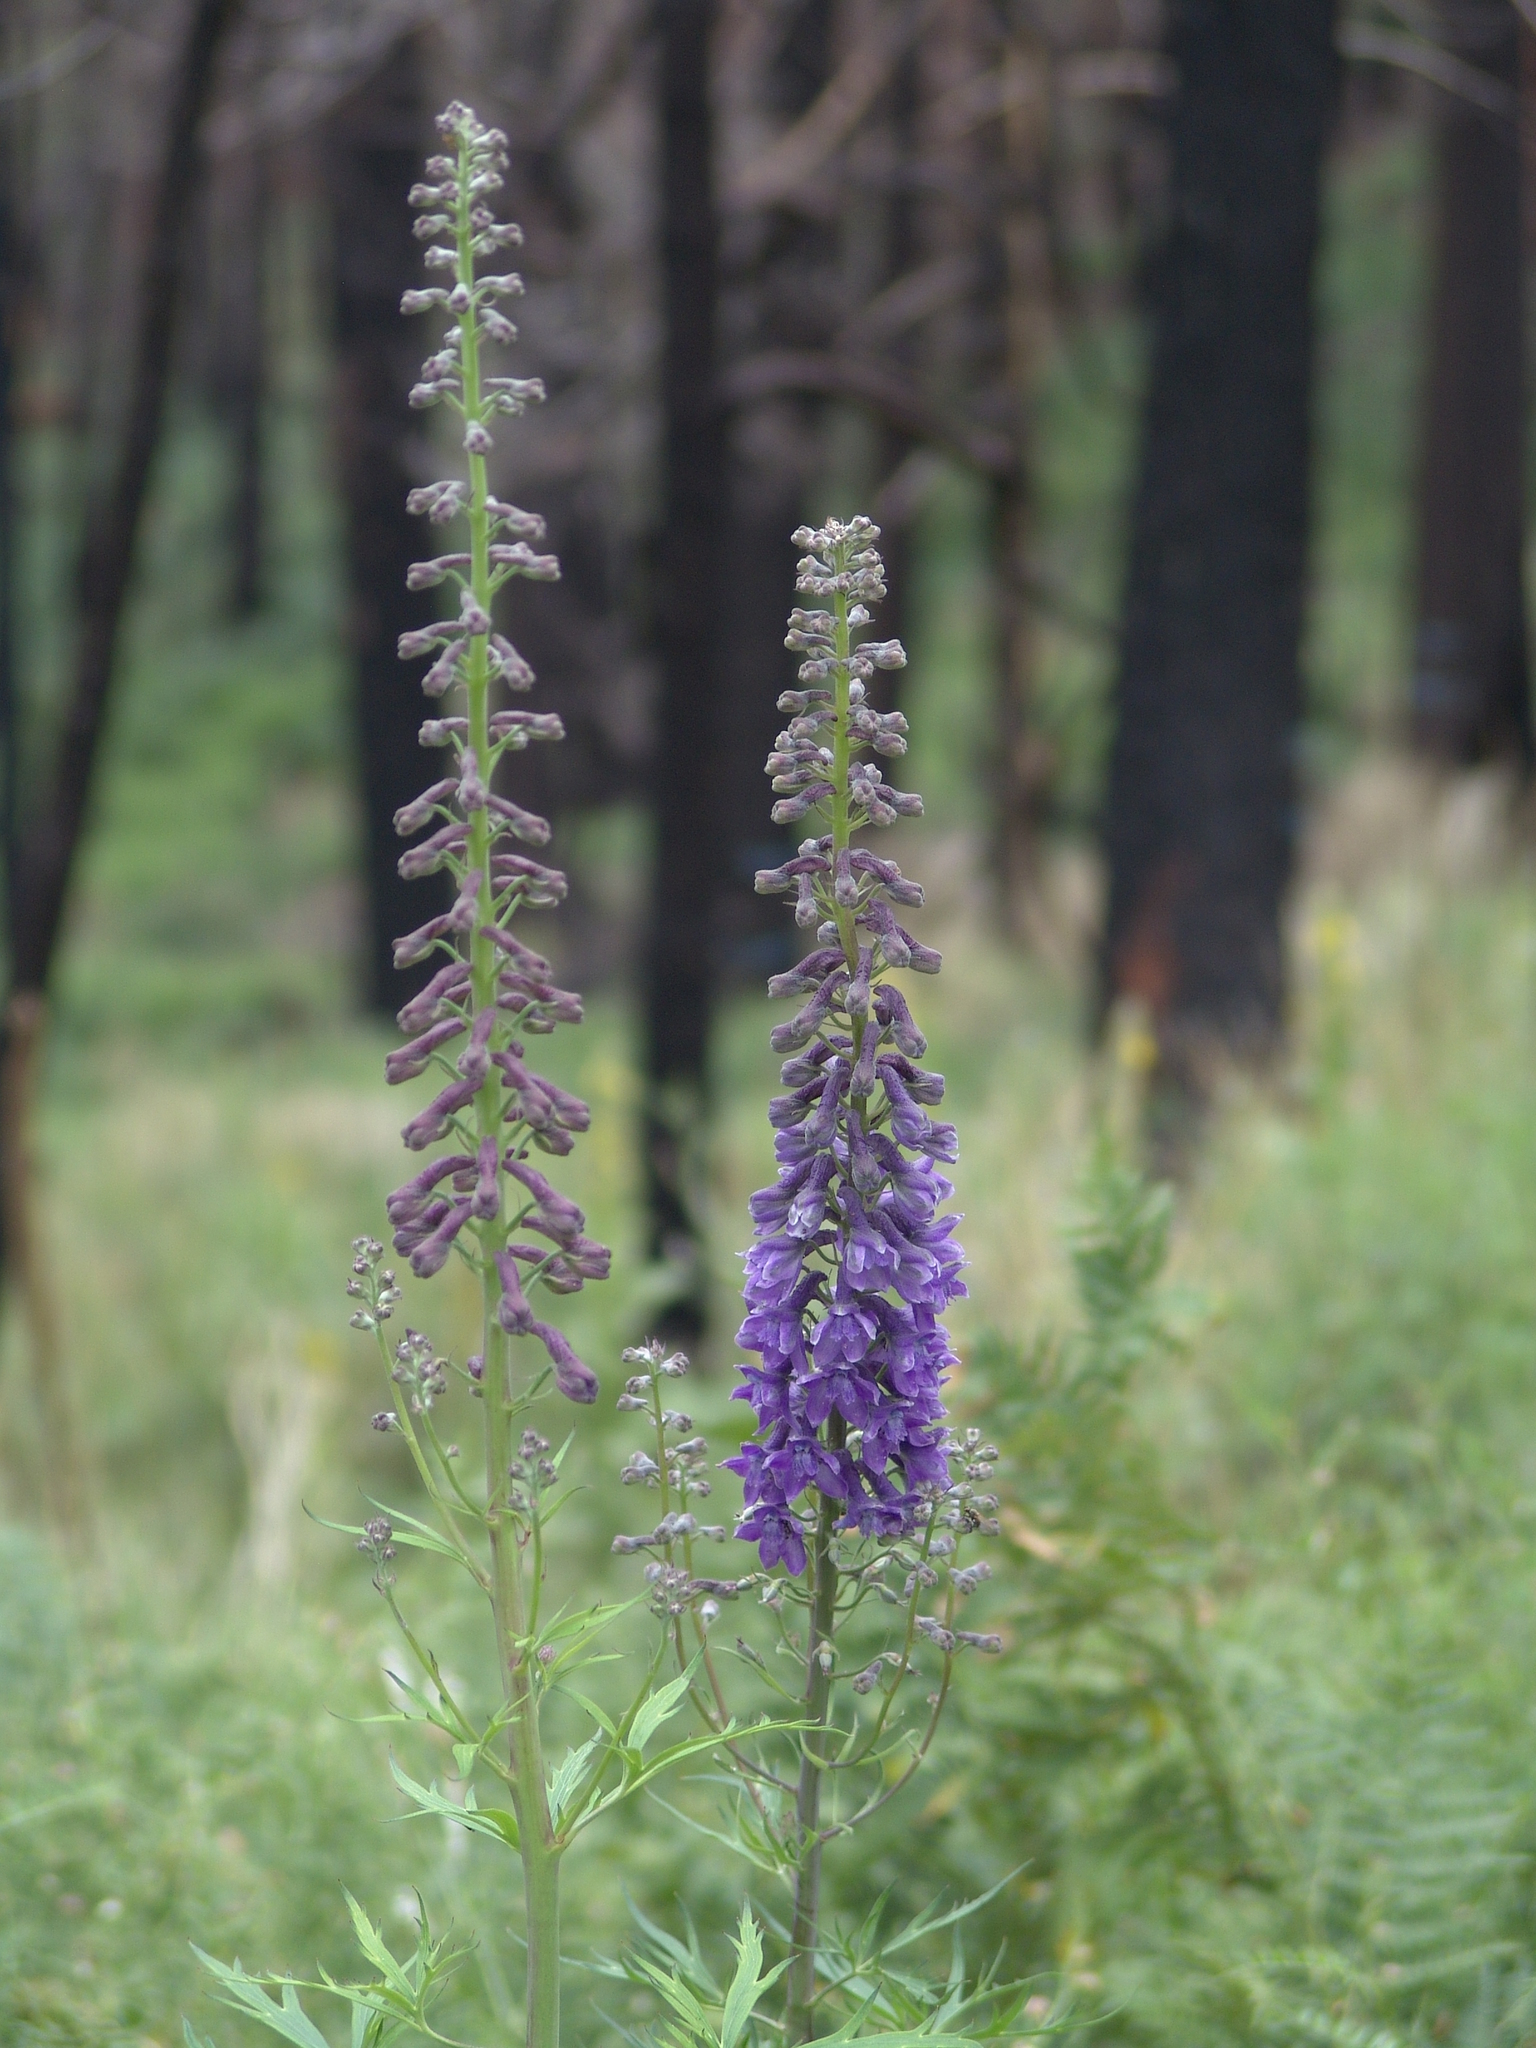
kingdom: Plantae
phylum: Tracheophyta
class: Magnoliopsida
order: Ranunculales
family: Ranunculaceae
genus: Delphinium
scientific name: Delphinium andesicola
